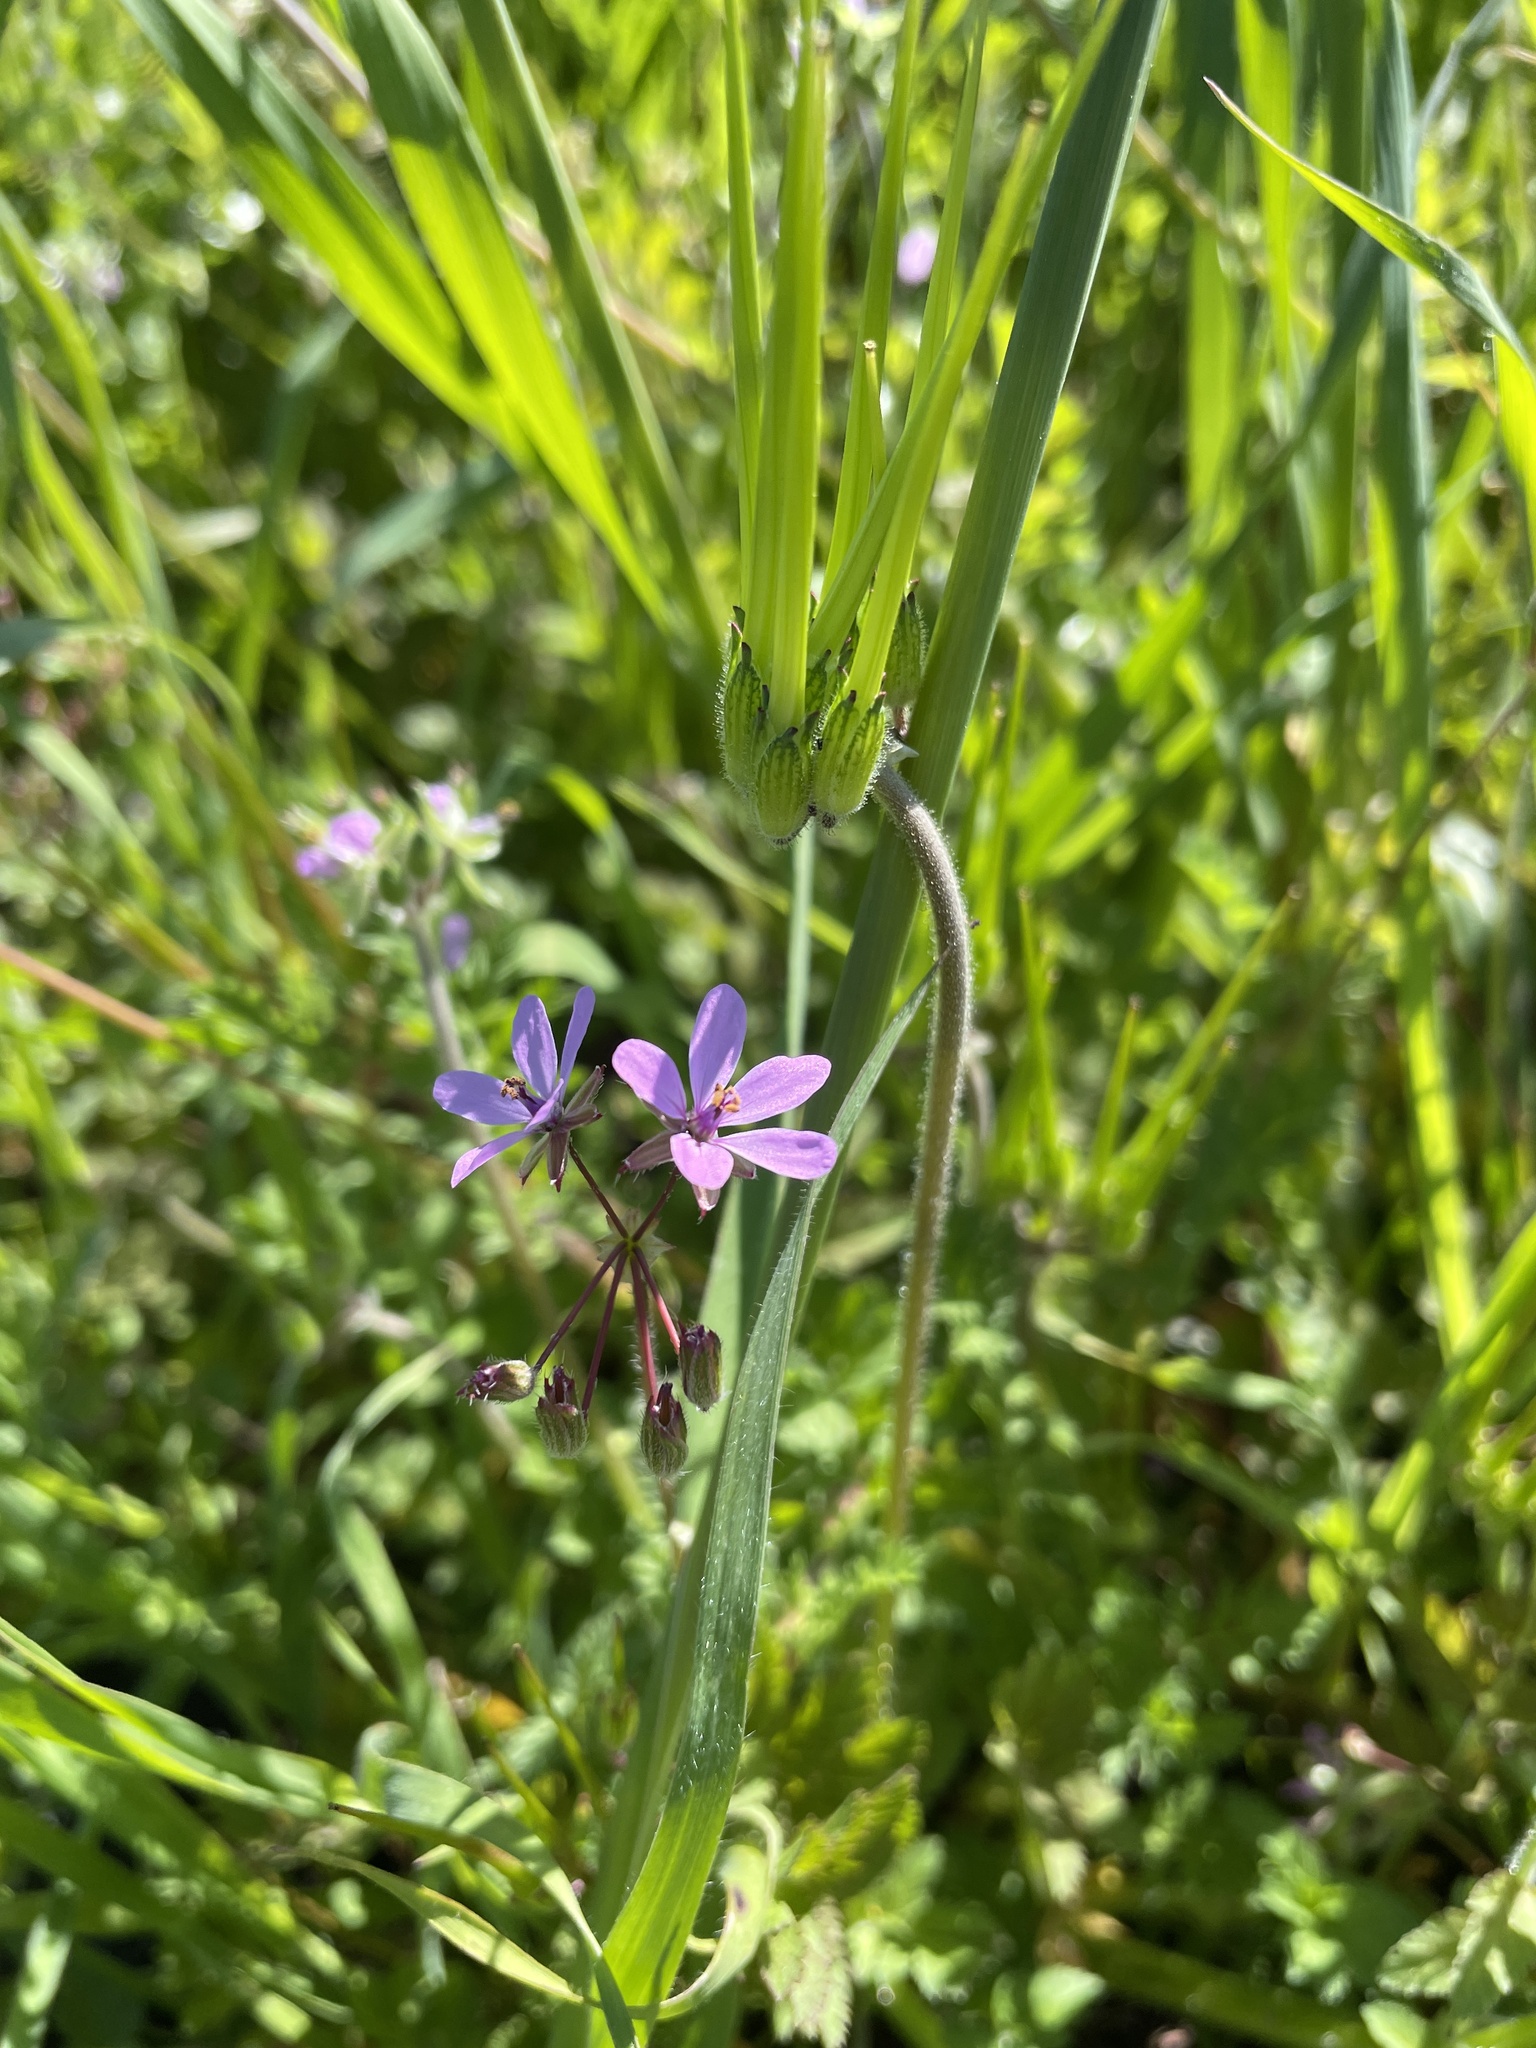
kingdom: Plantae
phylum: Tracheophyta
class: Magnoliopsida
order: Geraniales
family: Geraniaceae
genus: Erodium
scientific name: Erodium cicutarium
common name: Common stork's-bill
